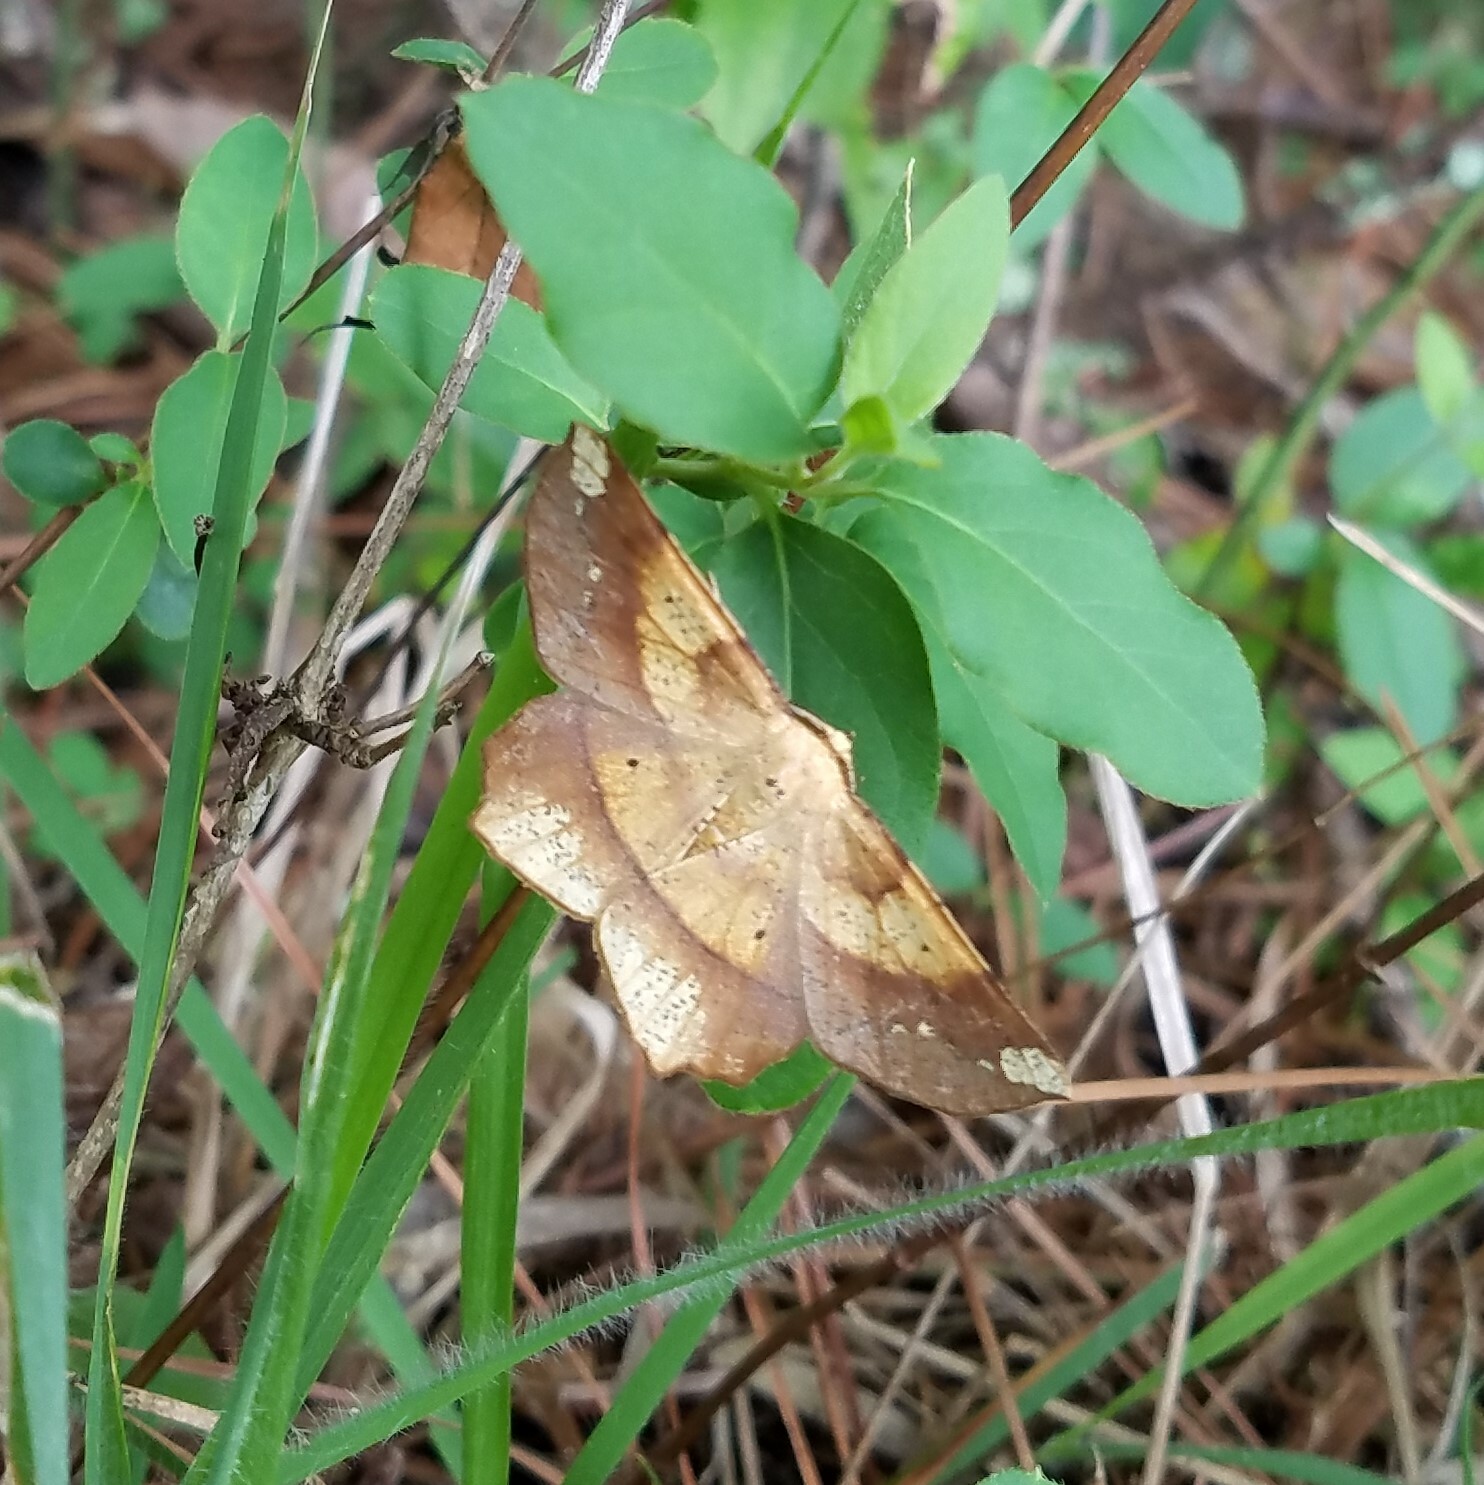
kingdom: Animalia
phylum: Arthropoda
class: Insecta
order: Lepidoptera
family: Geometridae
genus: Euchlaena
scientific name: Euchlaena amoenaria
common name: Deep yellow euchlaena
